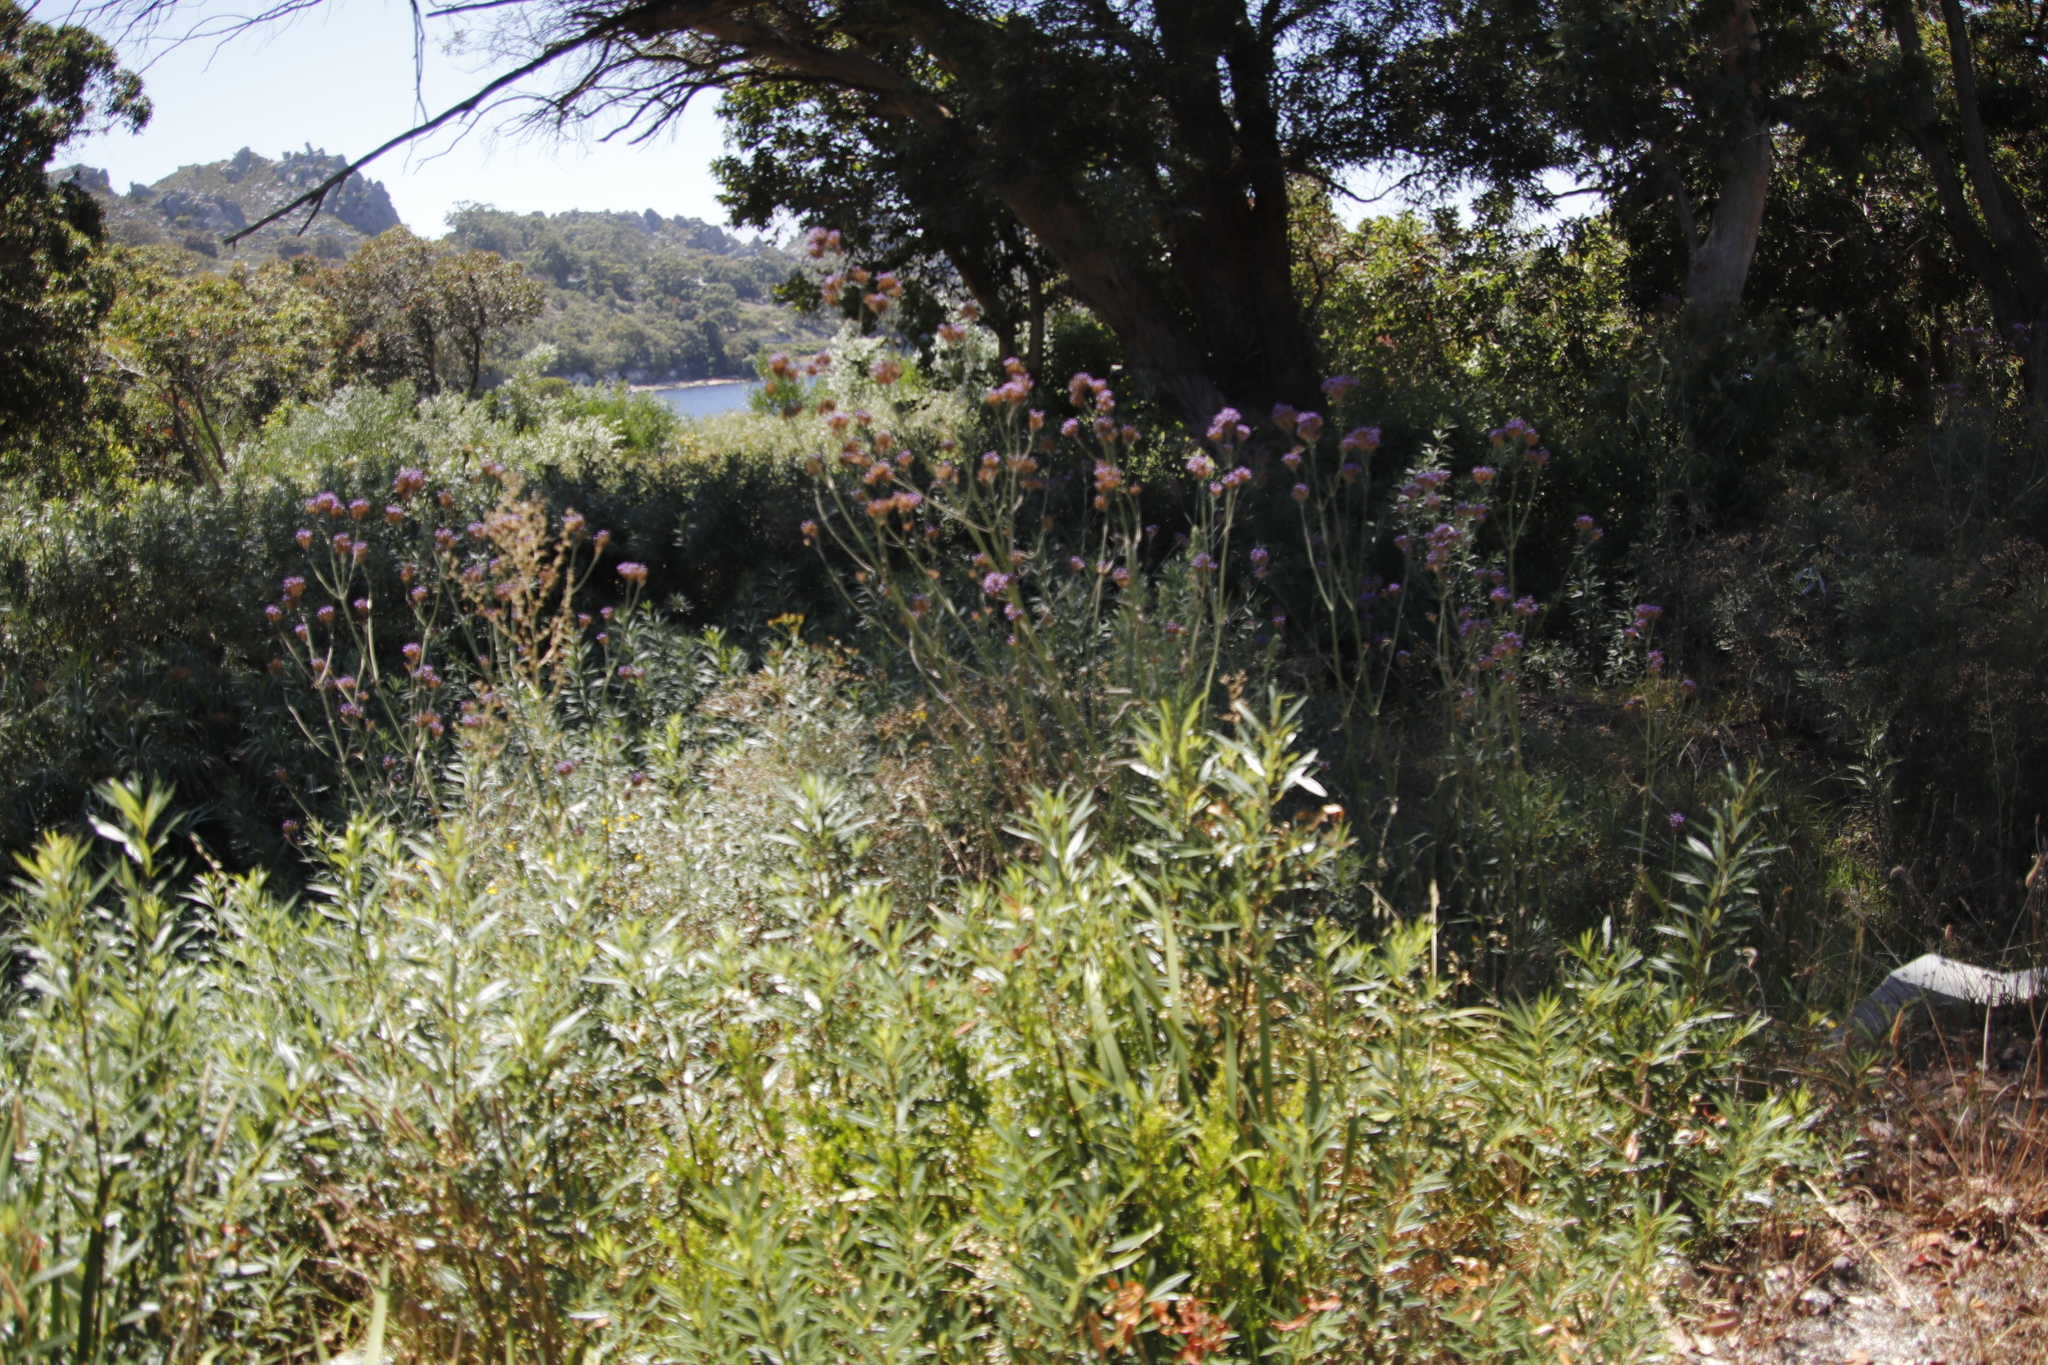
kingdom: Plantae
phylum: Tracheophyta
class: Magnoliopsida
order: Lamiales
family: Verbenaceae
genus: Verbena
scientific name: Verbena bonariensis
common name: Purpletop vervain
